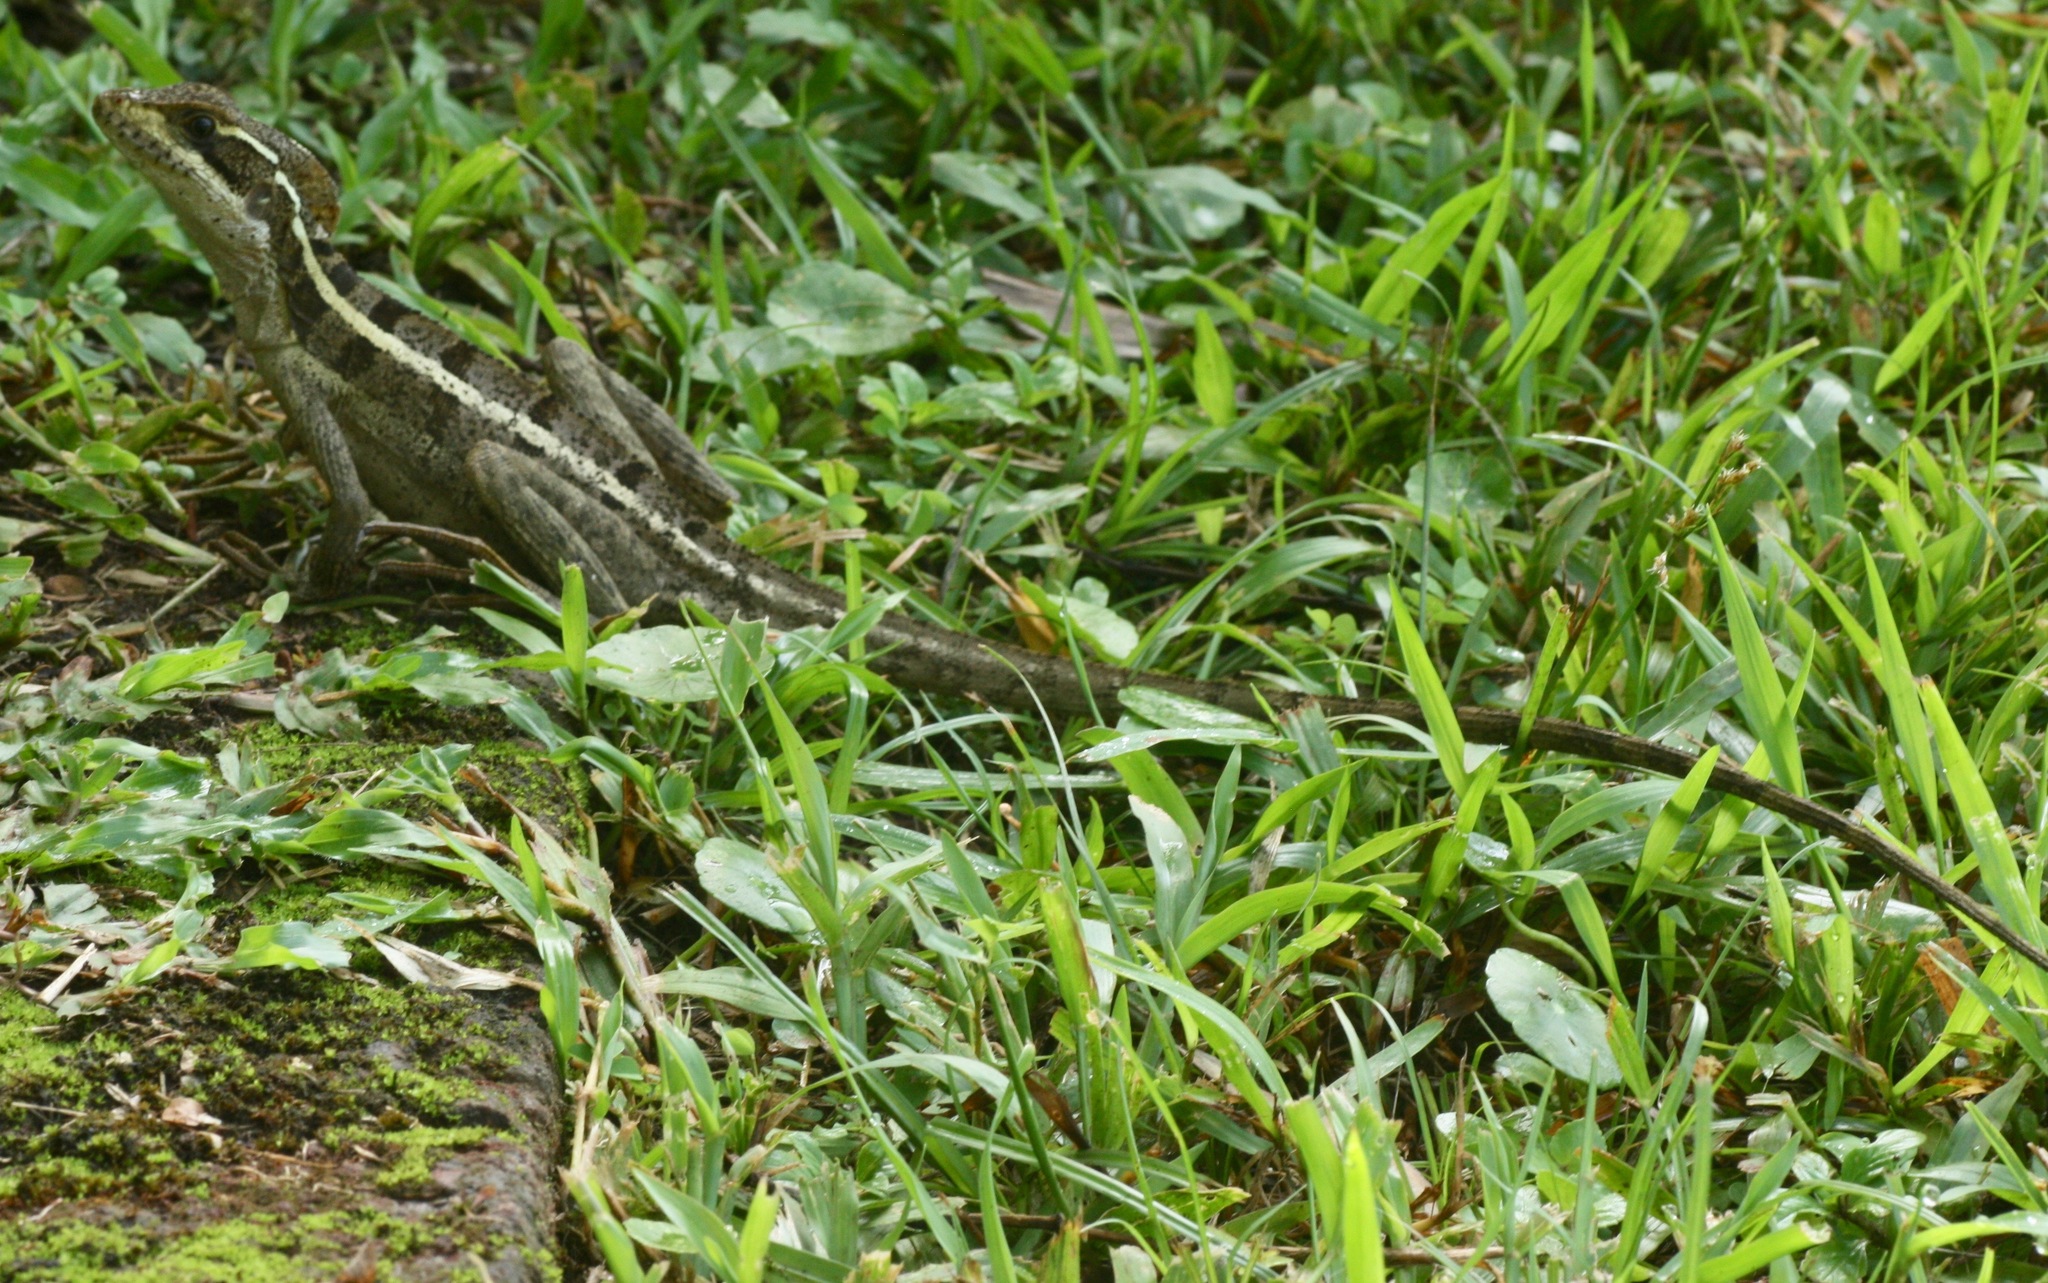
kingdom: Animalia
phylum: Chordata
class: Squamata
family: Corytophanidae
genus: Basiliscus
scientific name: Basiliscus vittatus
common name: Brown basilisk
